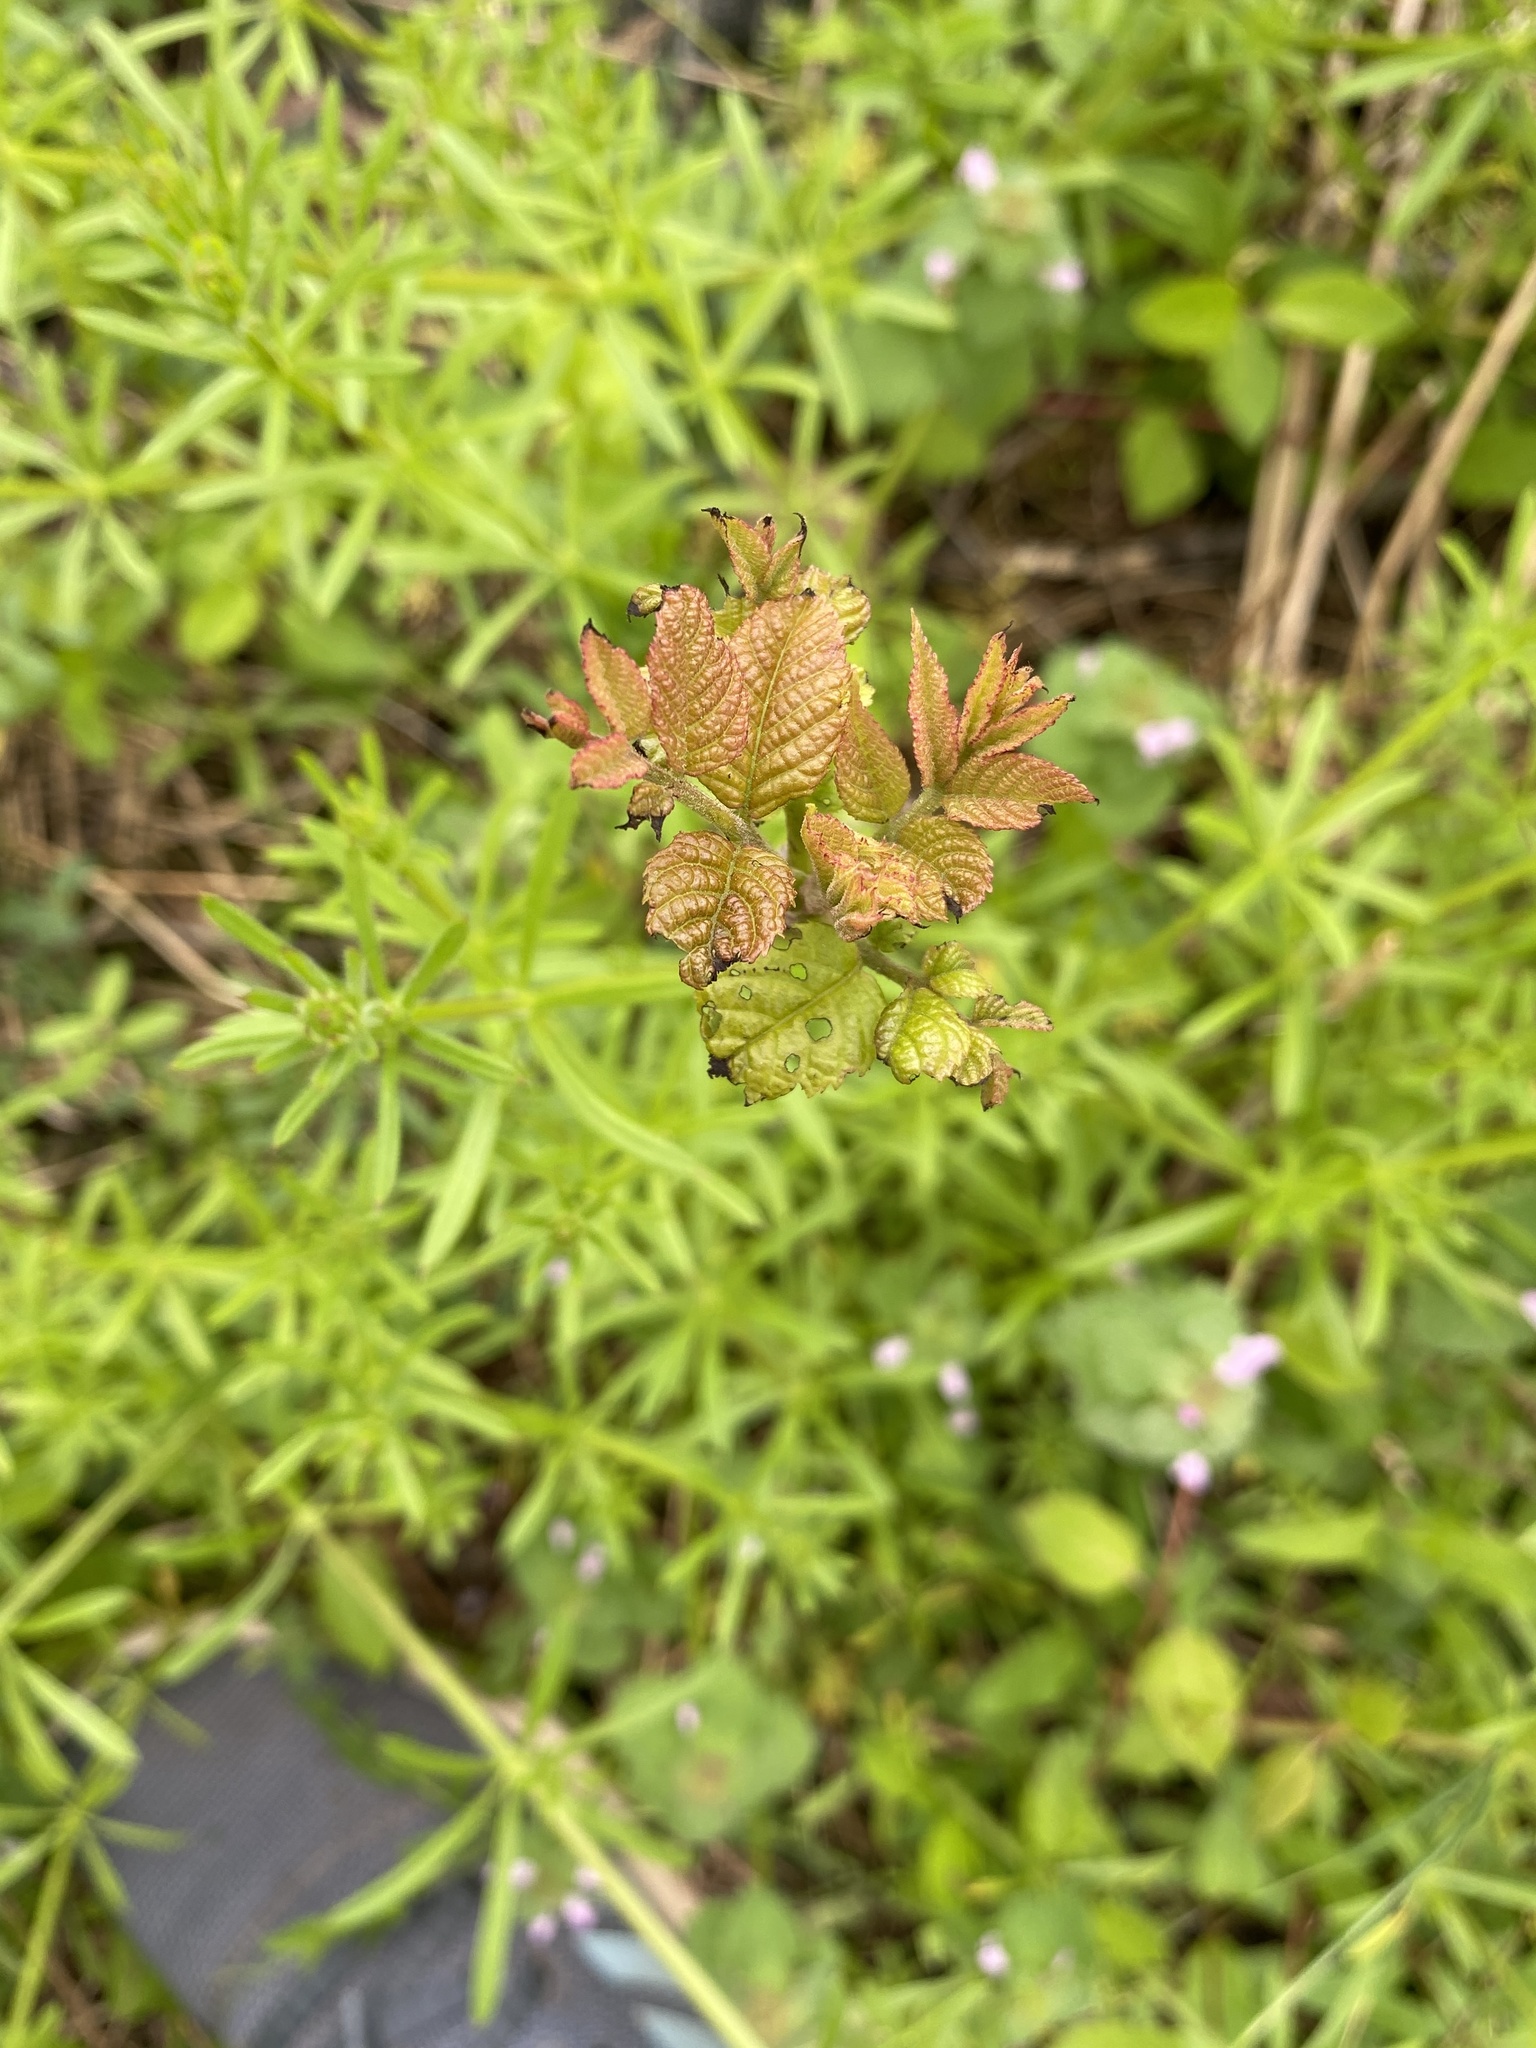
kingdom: Plantae
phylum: Tracheophyta
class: Magnoliopsida
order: Fagales
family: Juglandaceae
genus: Juglans
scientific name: Juglans nigra
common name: Black walnut
